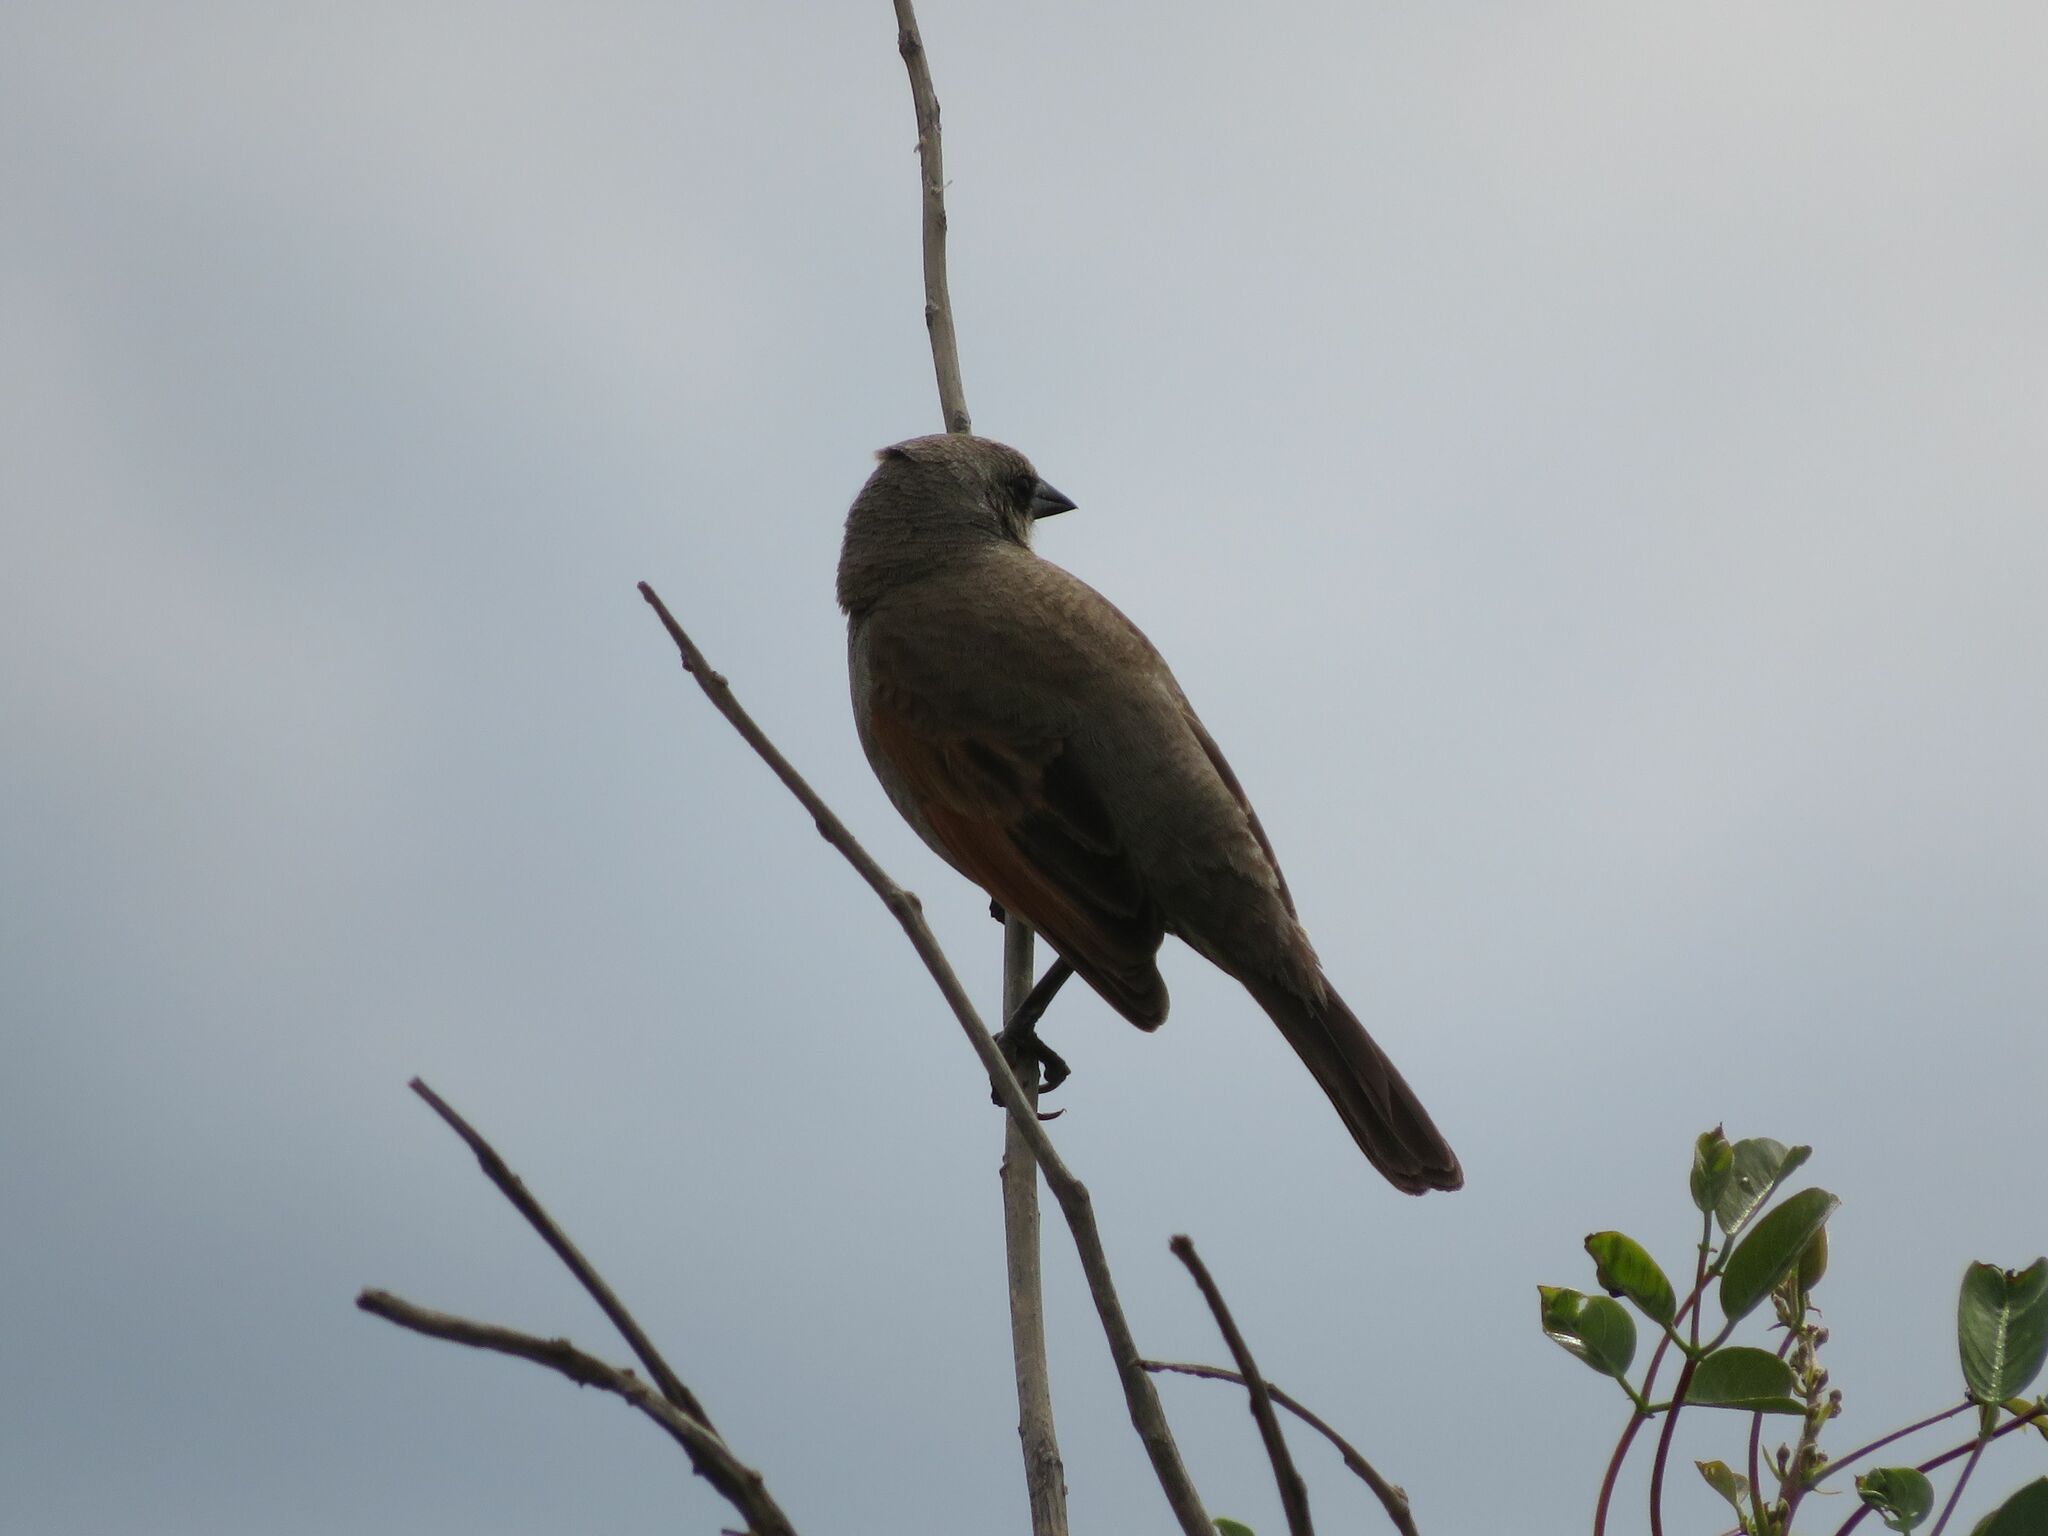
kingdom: Animalia
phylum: Chordata
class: Aves
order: Passeriformes
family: Icteridae
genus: Agelaioides
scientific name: Agelaioides badius
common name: Baywing
